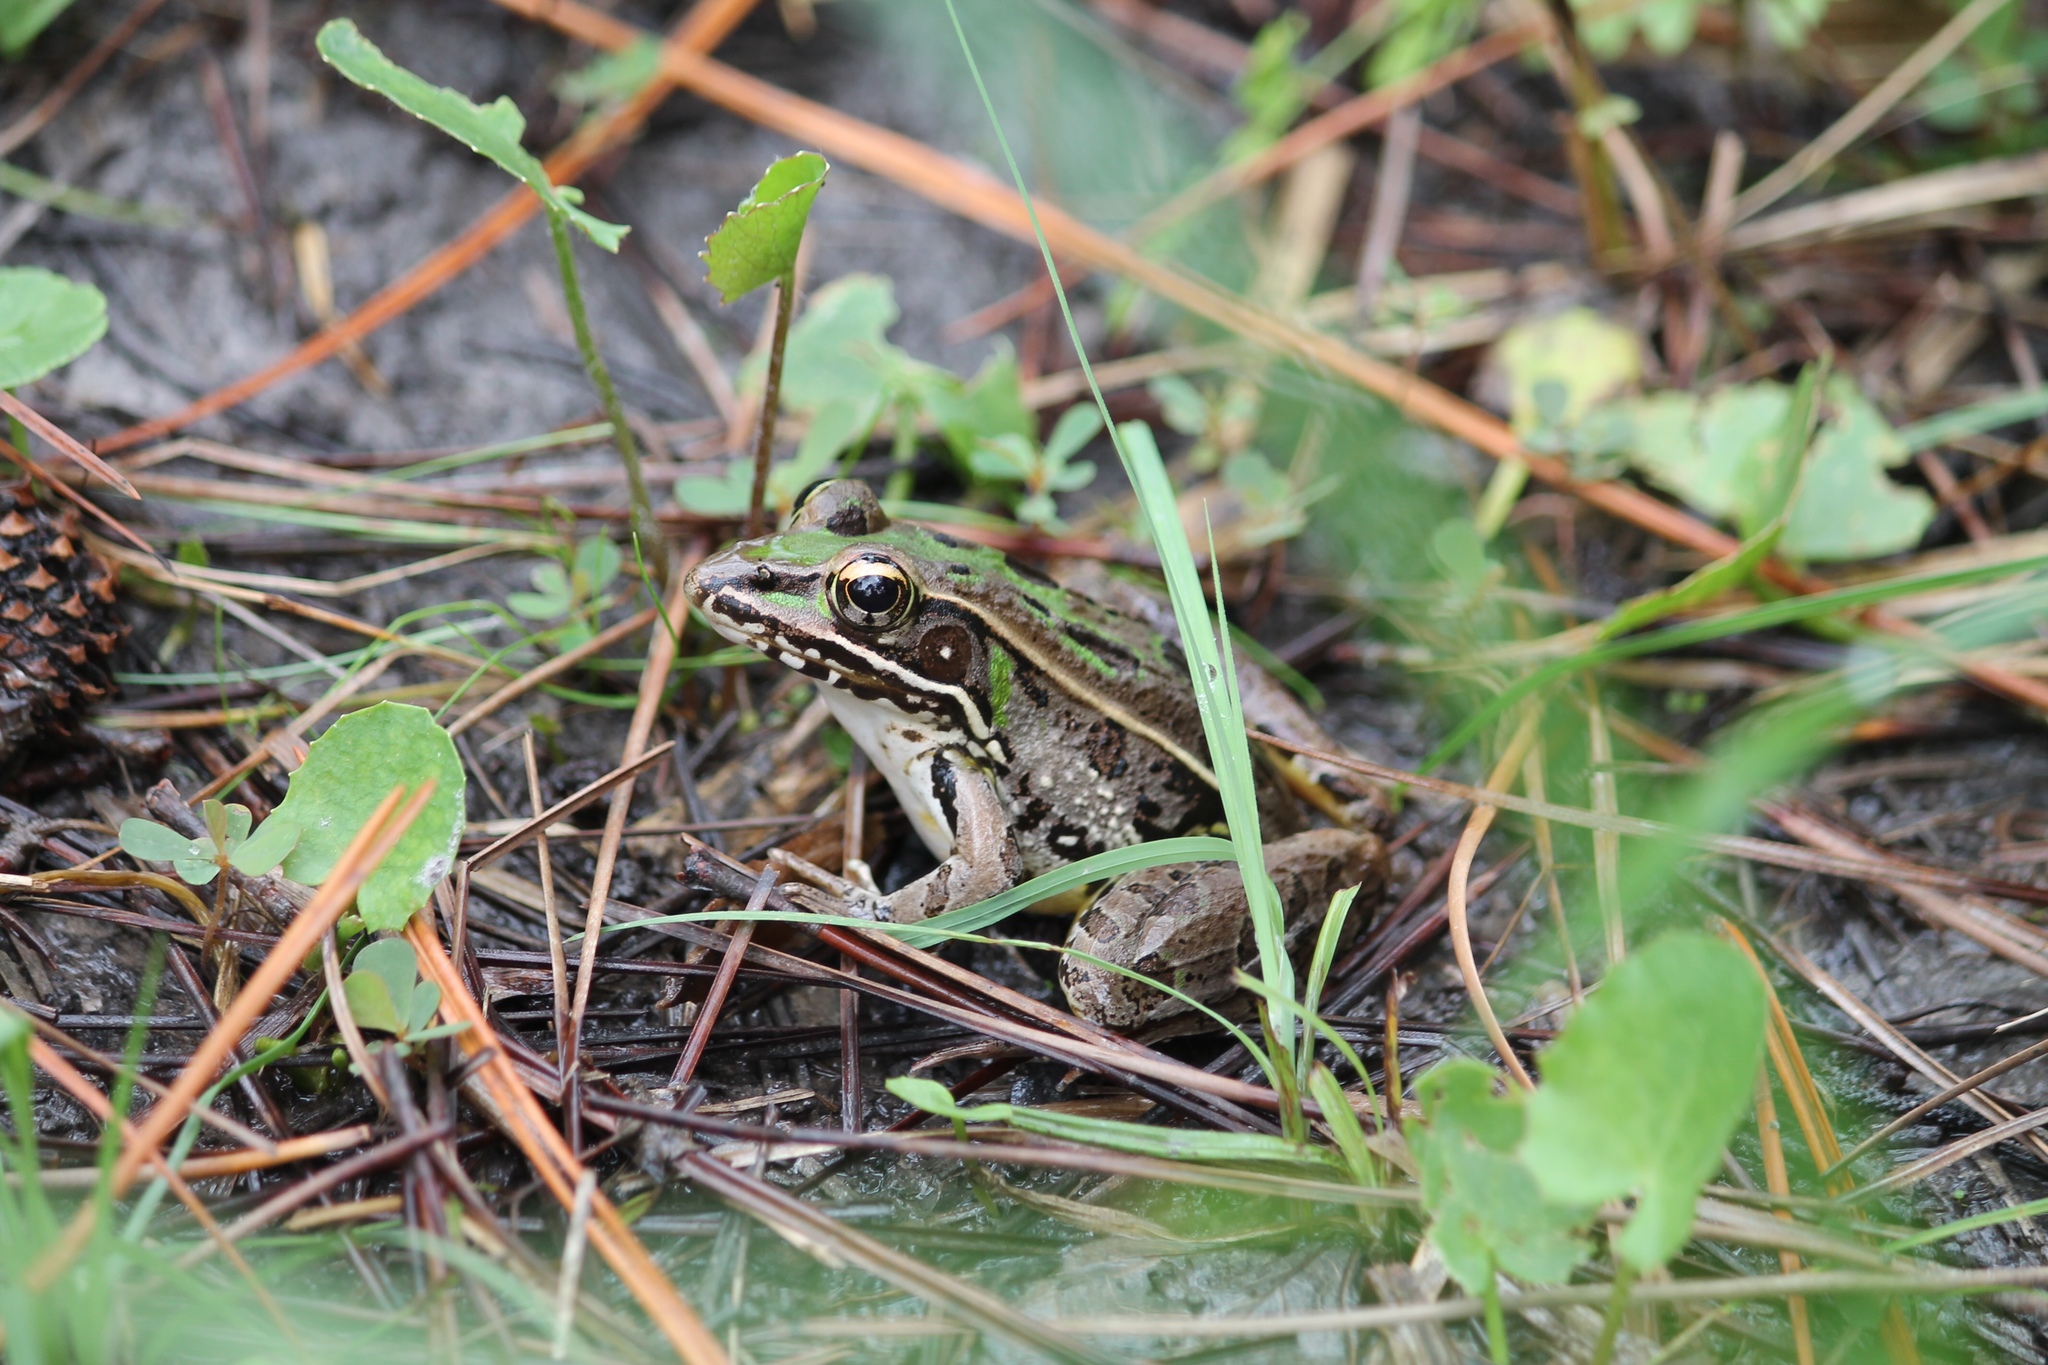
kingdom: Animalia
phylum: Chordata
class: Amphibia
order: Anura
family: Ranidae
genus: Lithobates
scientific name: Lithobates sphenocephalus
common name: Southern leopard frog
